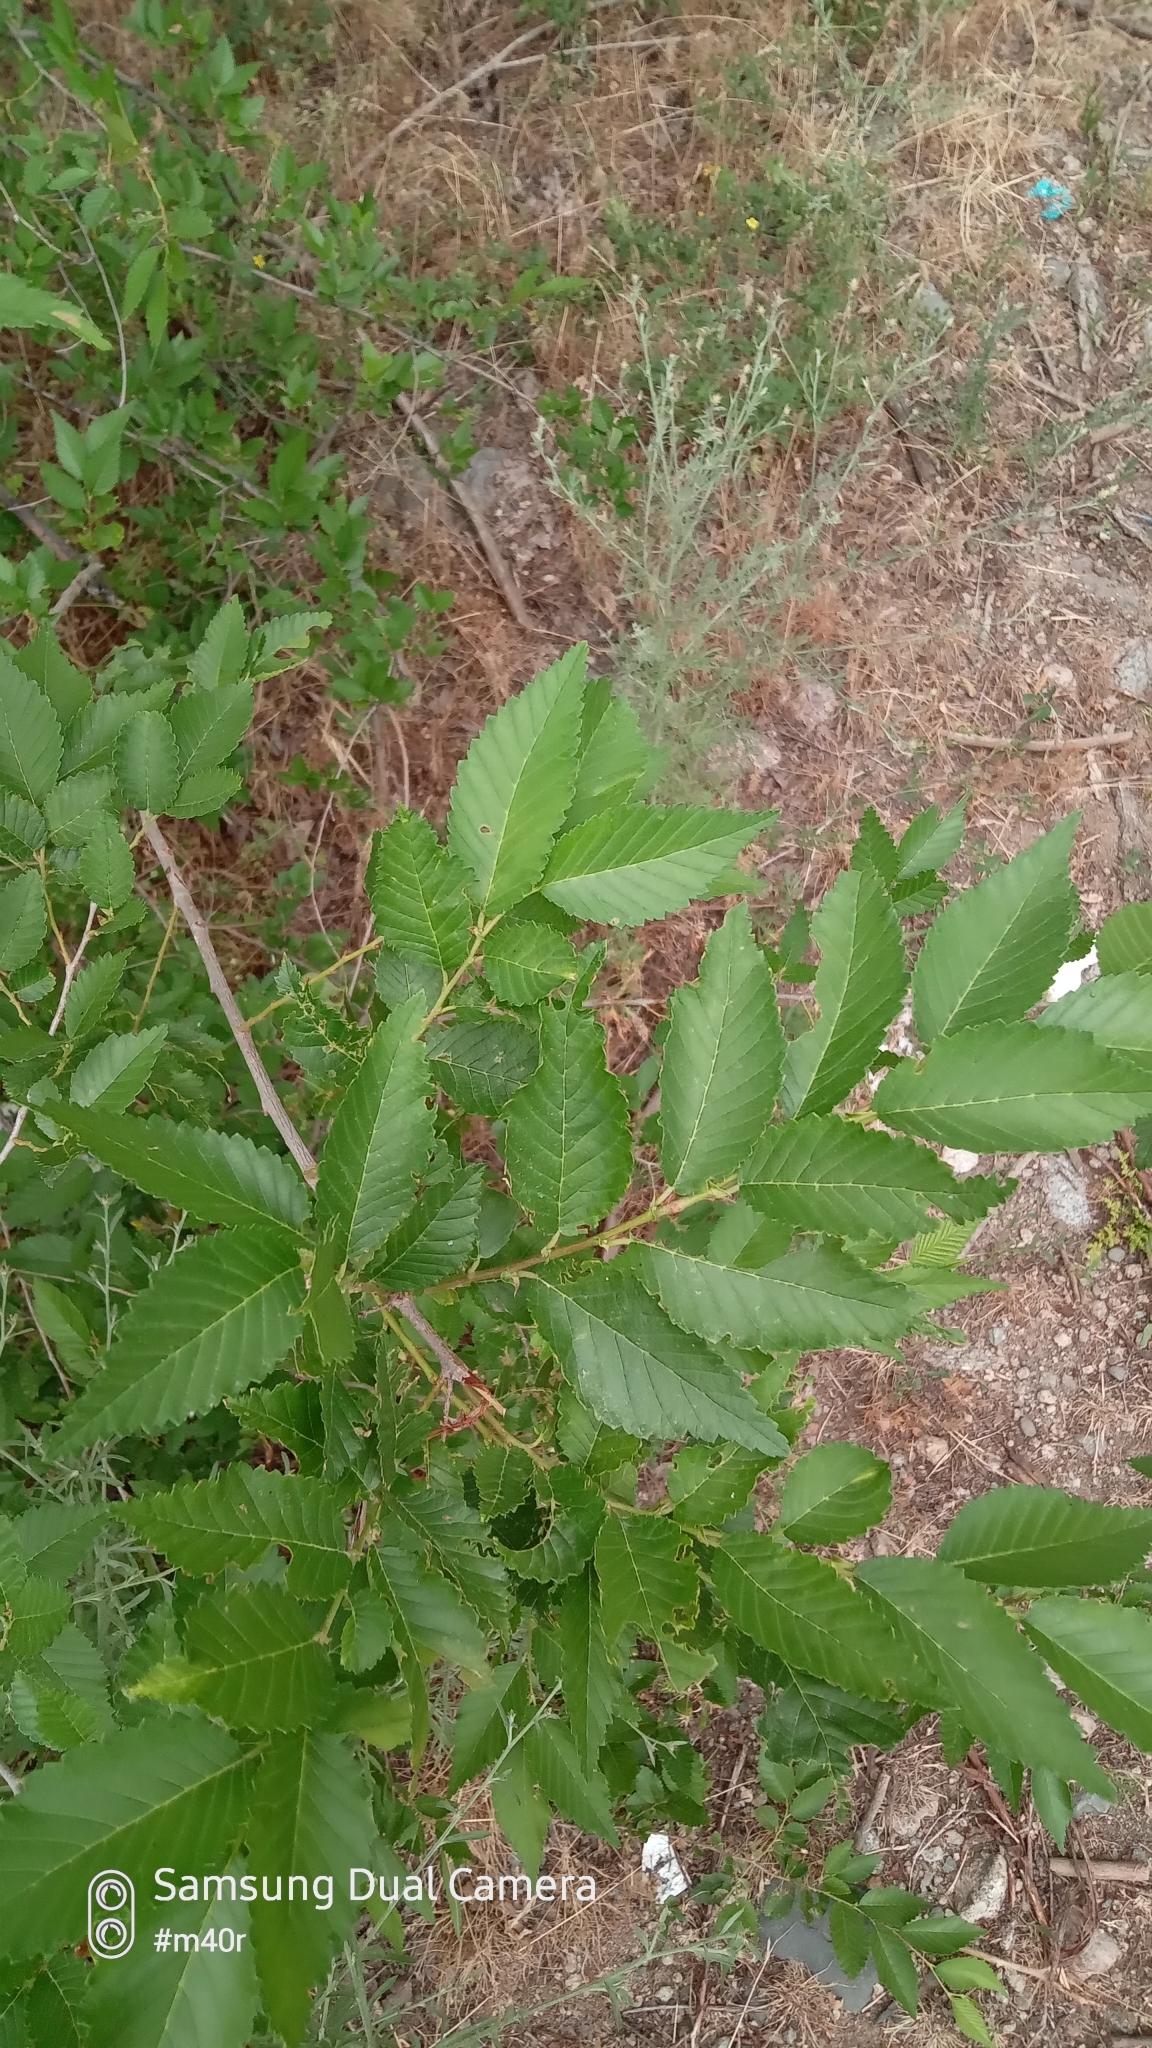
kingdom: Plantae
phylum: Tracheophyta
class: Magnoliopsida
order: Rosales
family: Ulmaceae
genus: Ulmus
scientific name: Ulmus pumila
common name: Siberian elm
